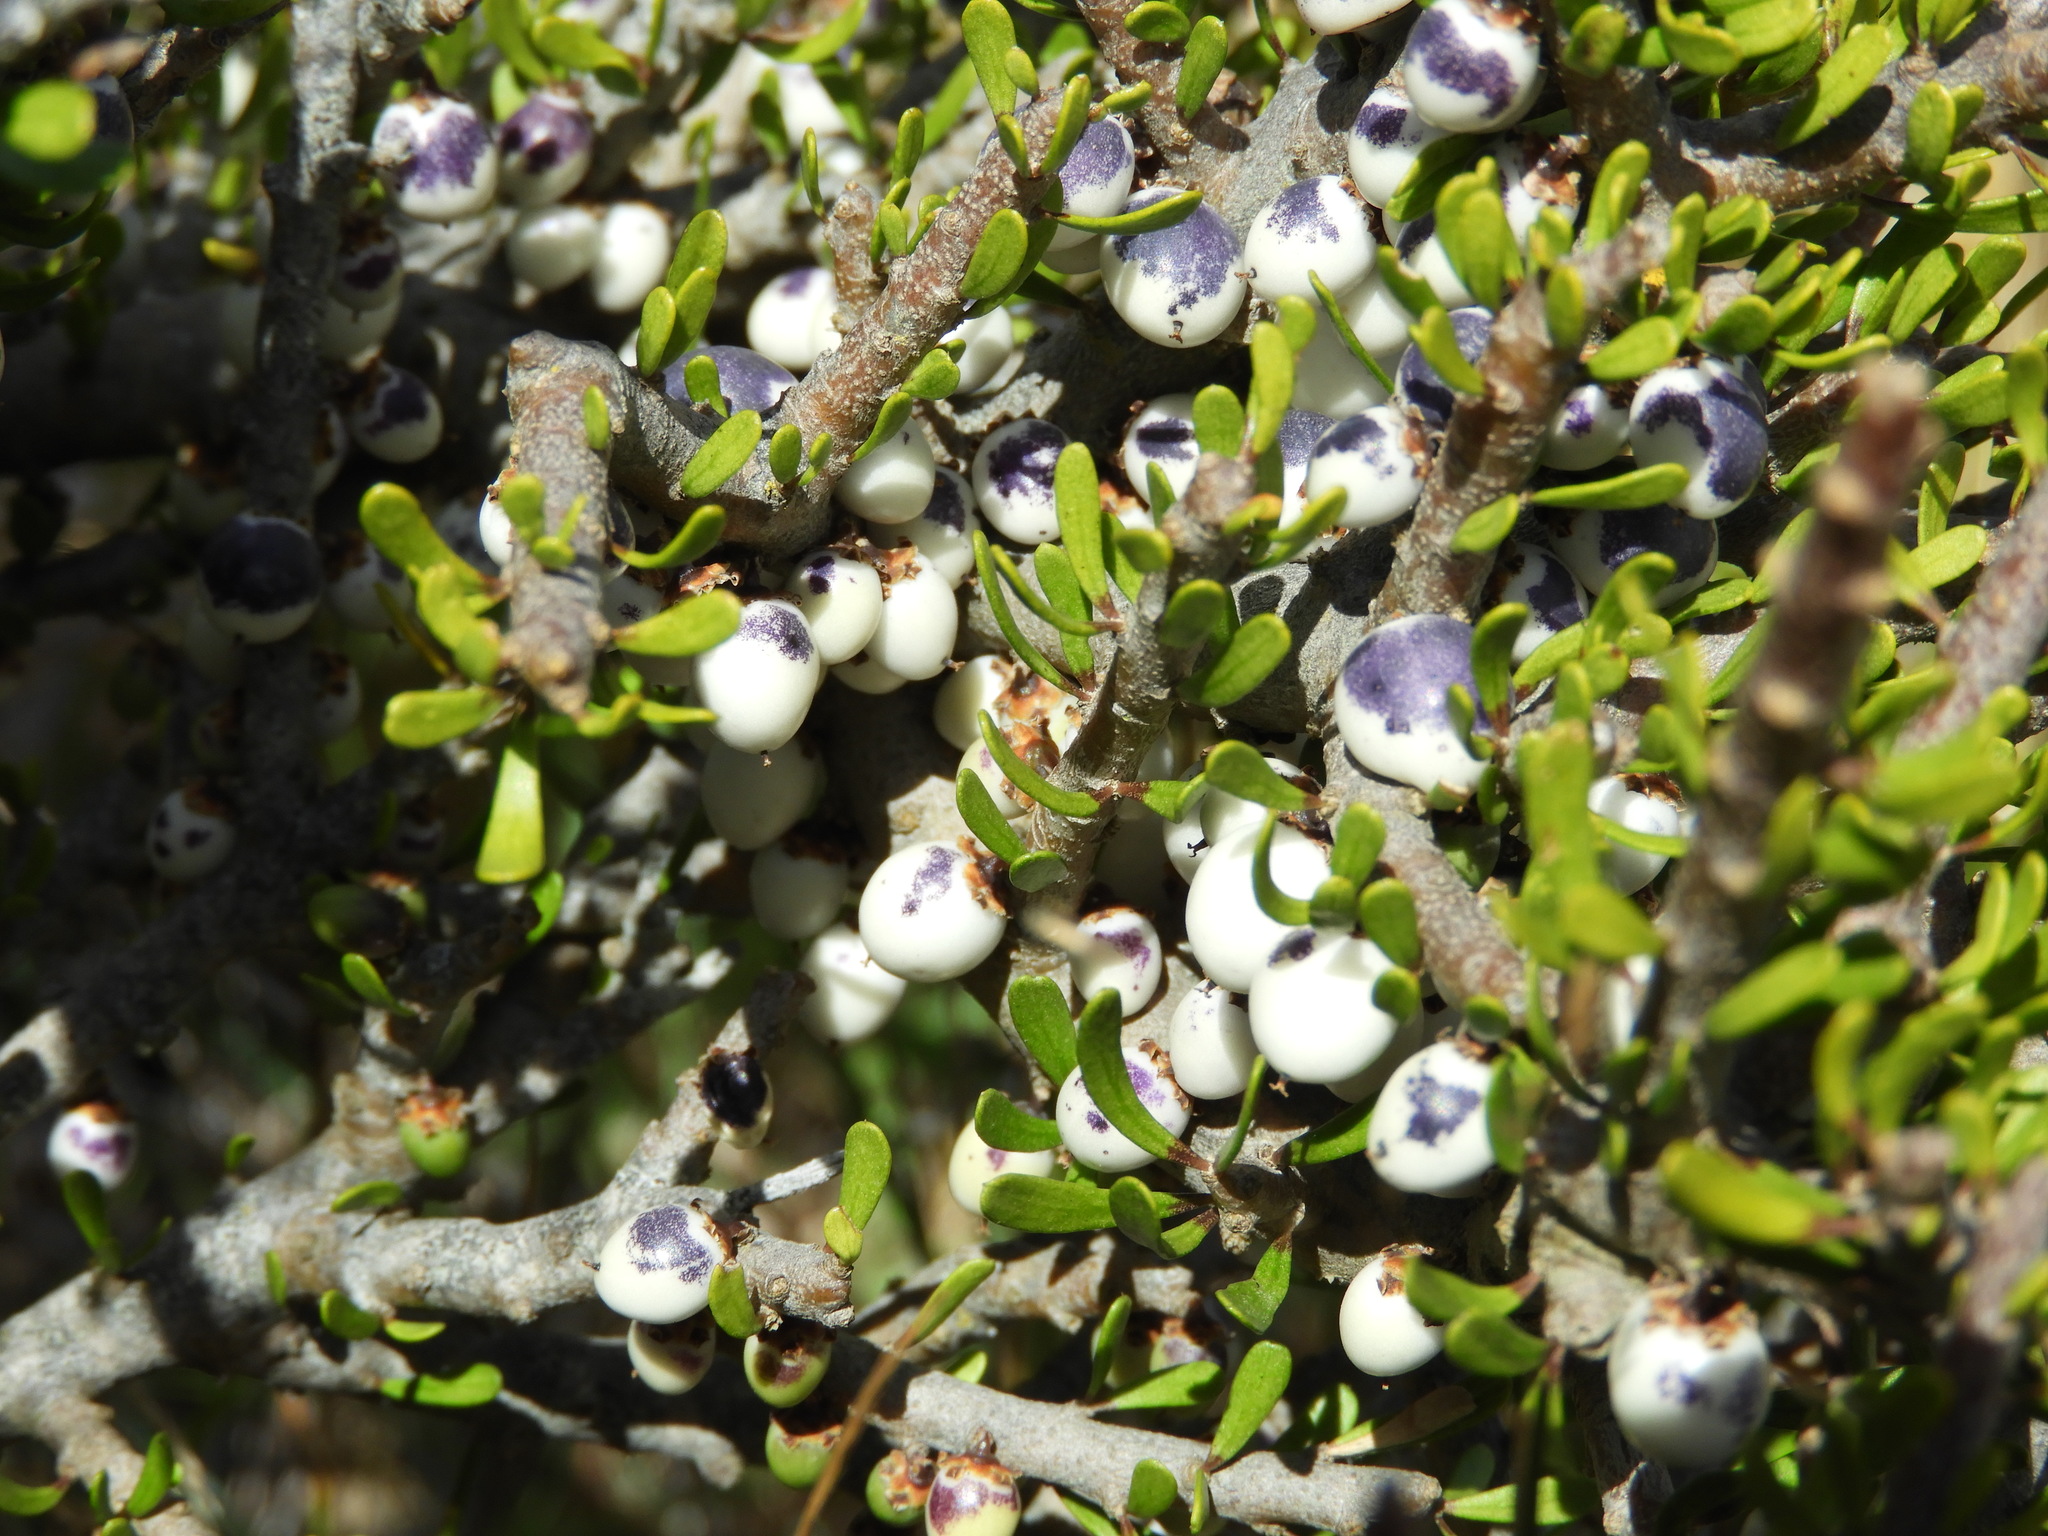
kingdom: Plantae
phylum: Tracheophyta
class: Magnoliopsida
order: Malpighiales
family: Violaceae
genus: Melicytus
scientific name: Melicytus alpinus
